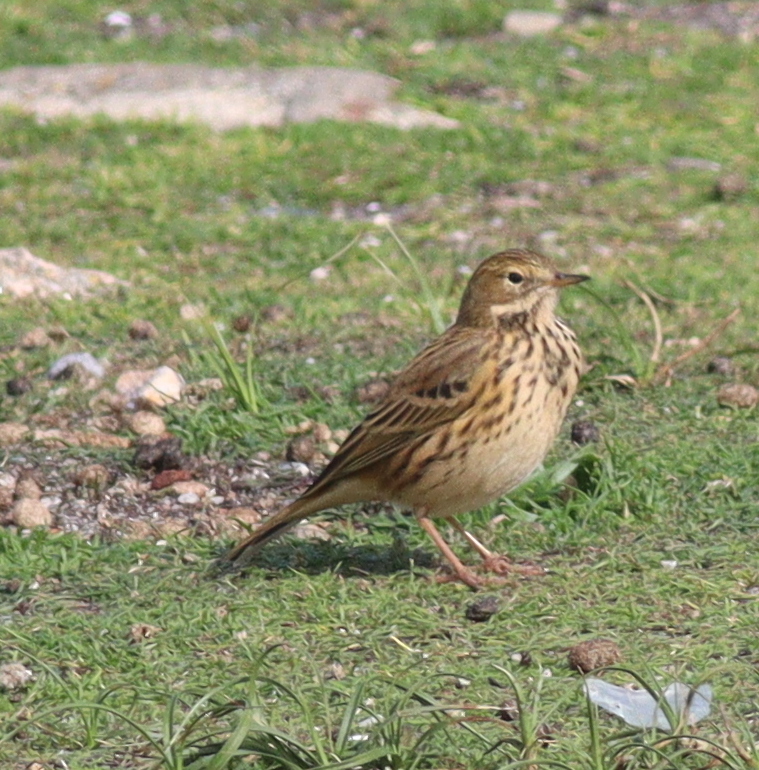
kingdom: Animalia
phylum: Chordata
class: Aves
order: Passeriformes
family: Motacillidae
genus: Anthus
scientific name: Anthus pratensis
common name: Meadow pipit
